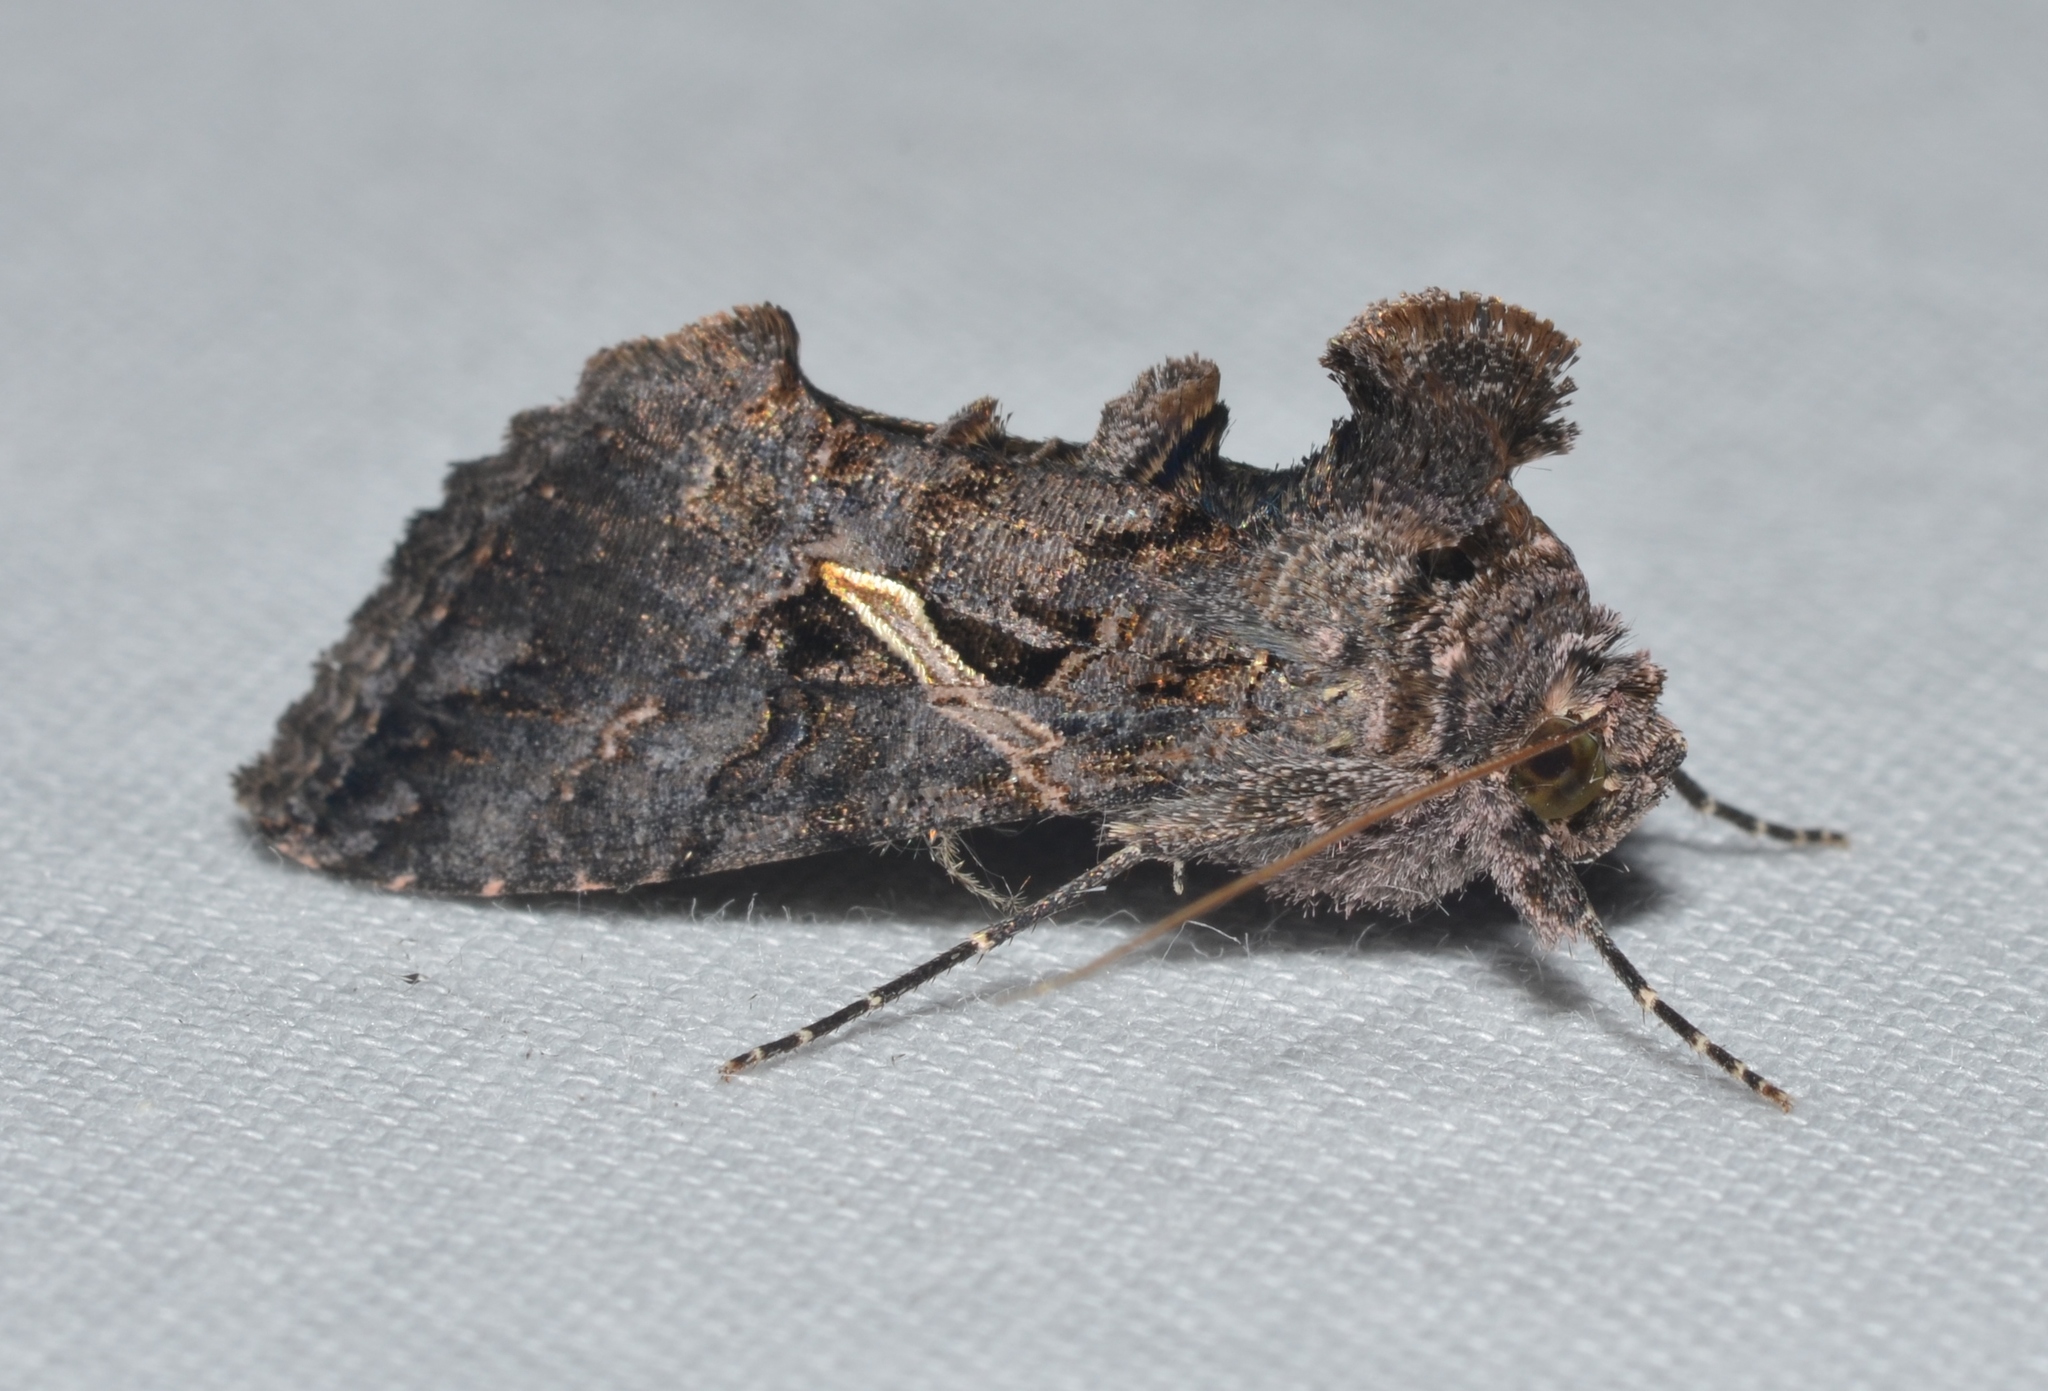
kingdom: Animalia
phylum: Arthropoda
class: Insecta
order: Lepidoptera
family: Noctuidae
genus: Ctenoplusia
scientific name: Ctenoplusia oxygramma
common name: Sharp-stigma looper moth
